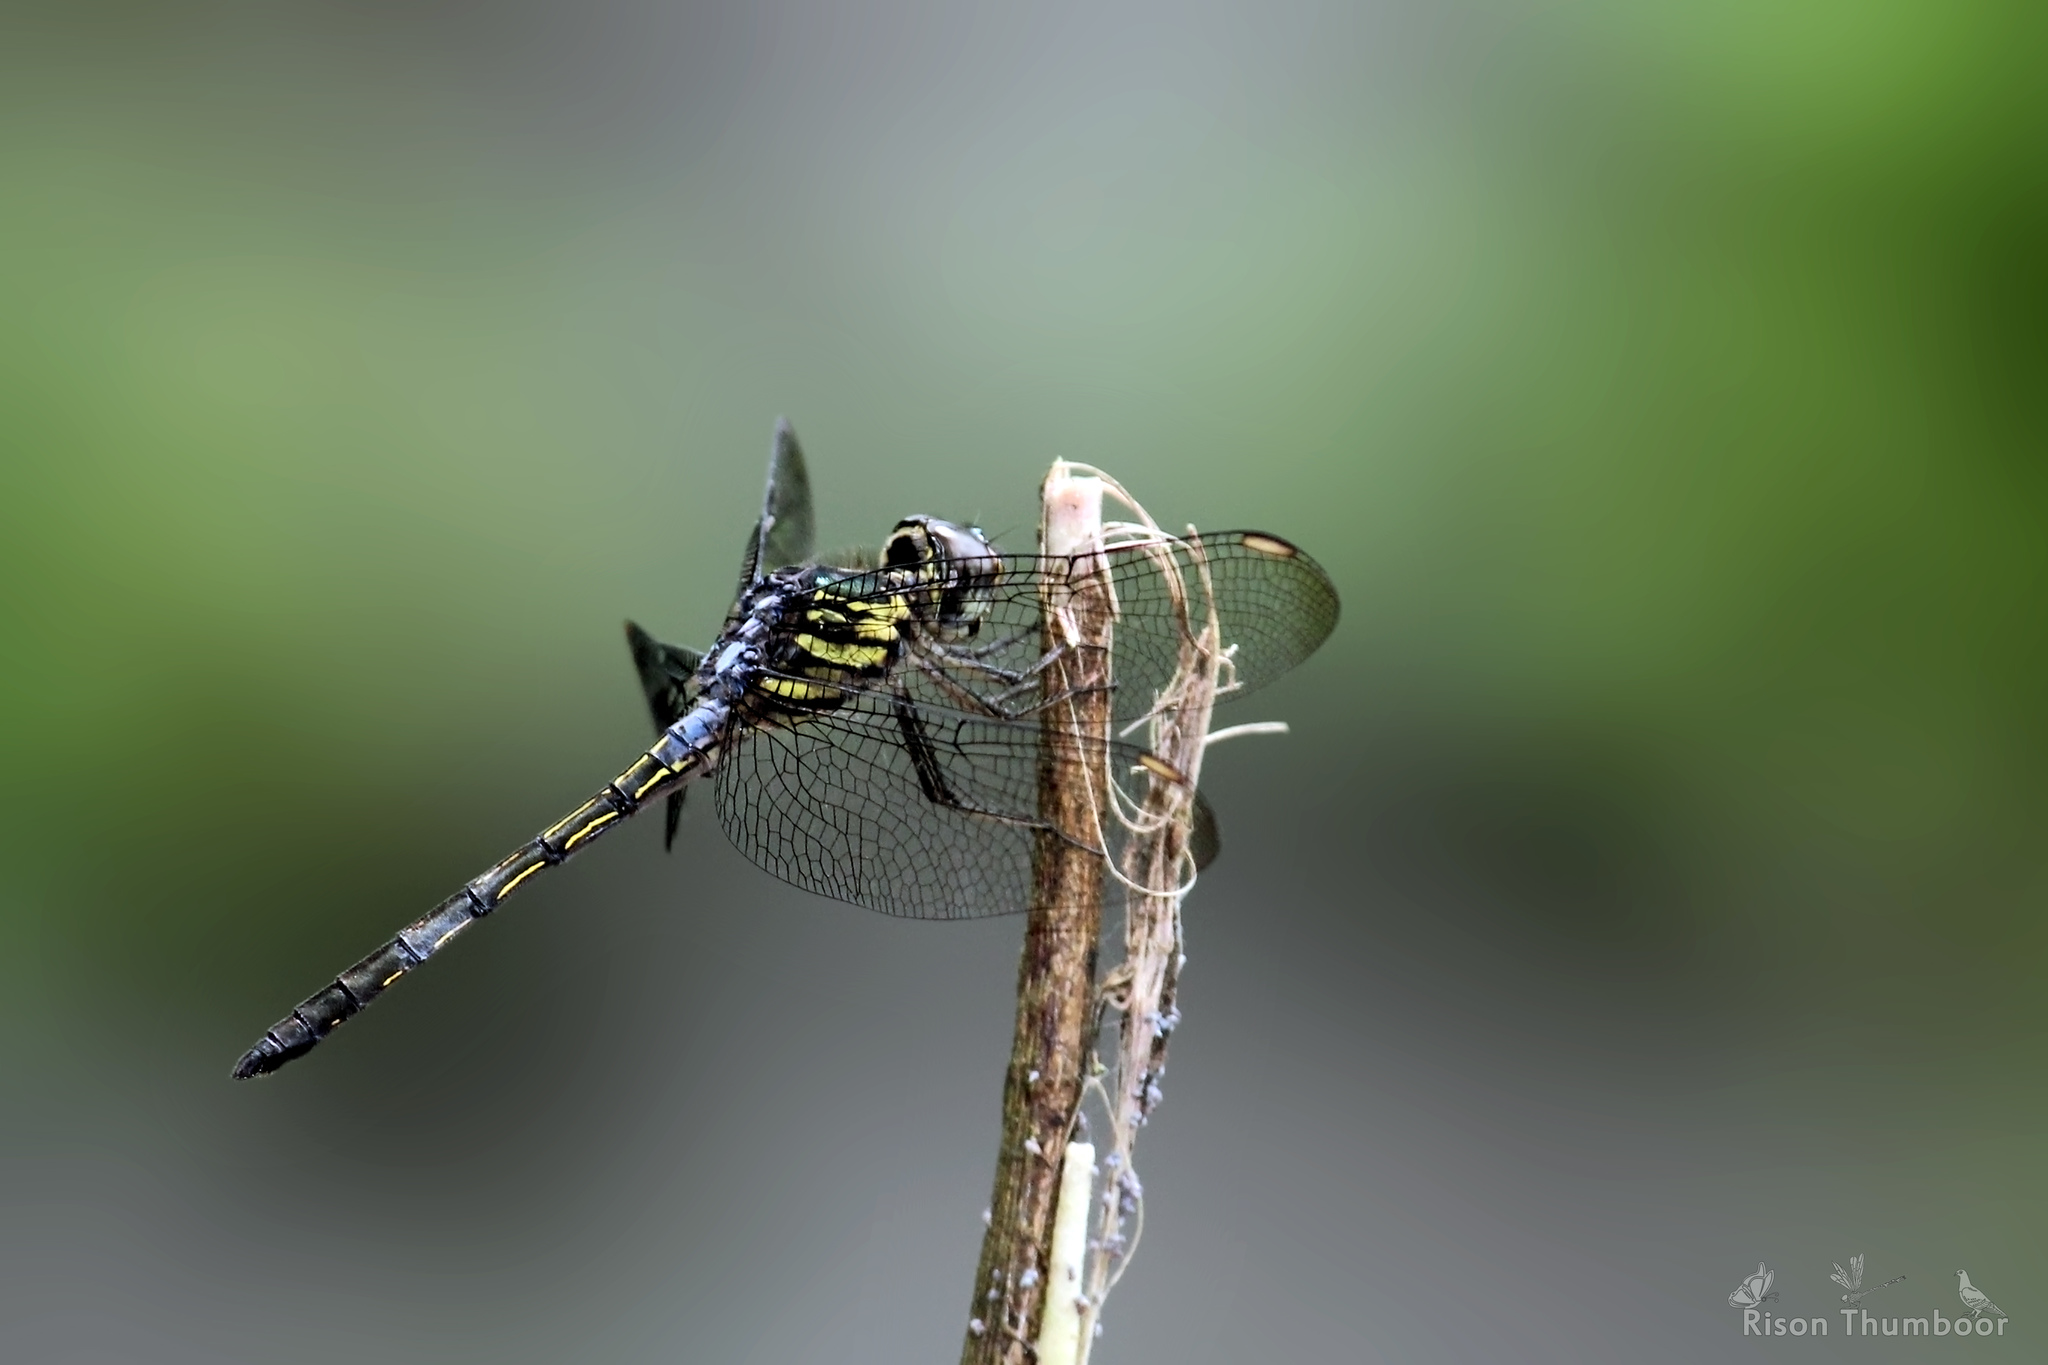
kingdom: Animalia
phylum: Arthropoda
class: Insecta
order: Odonata
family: Libellulidae
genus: Cratilla
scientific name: Cratilla lineata
